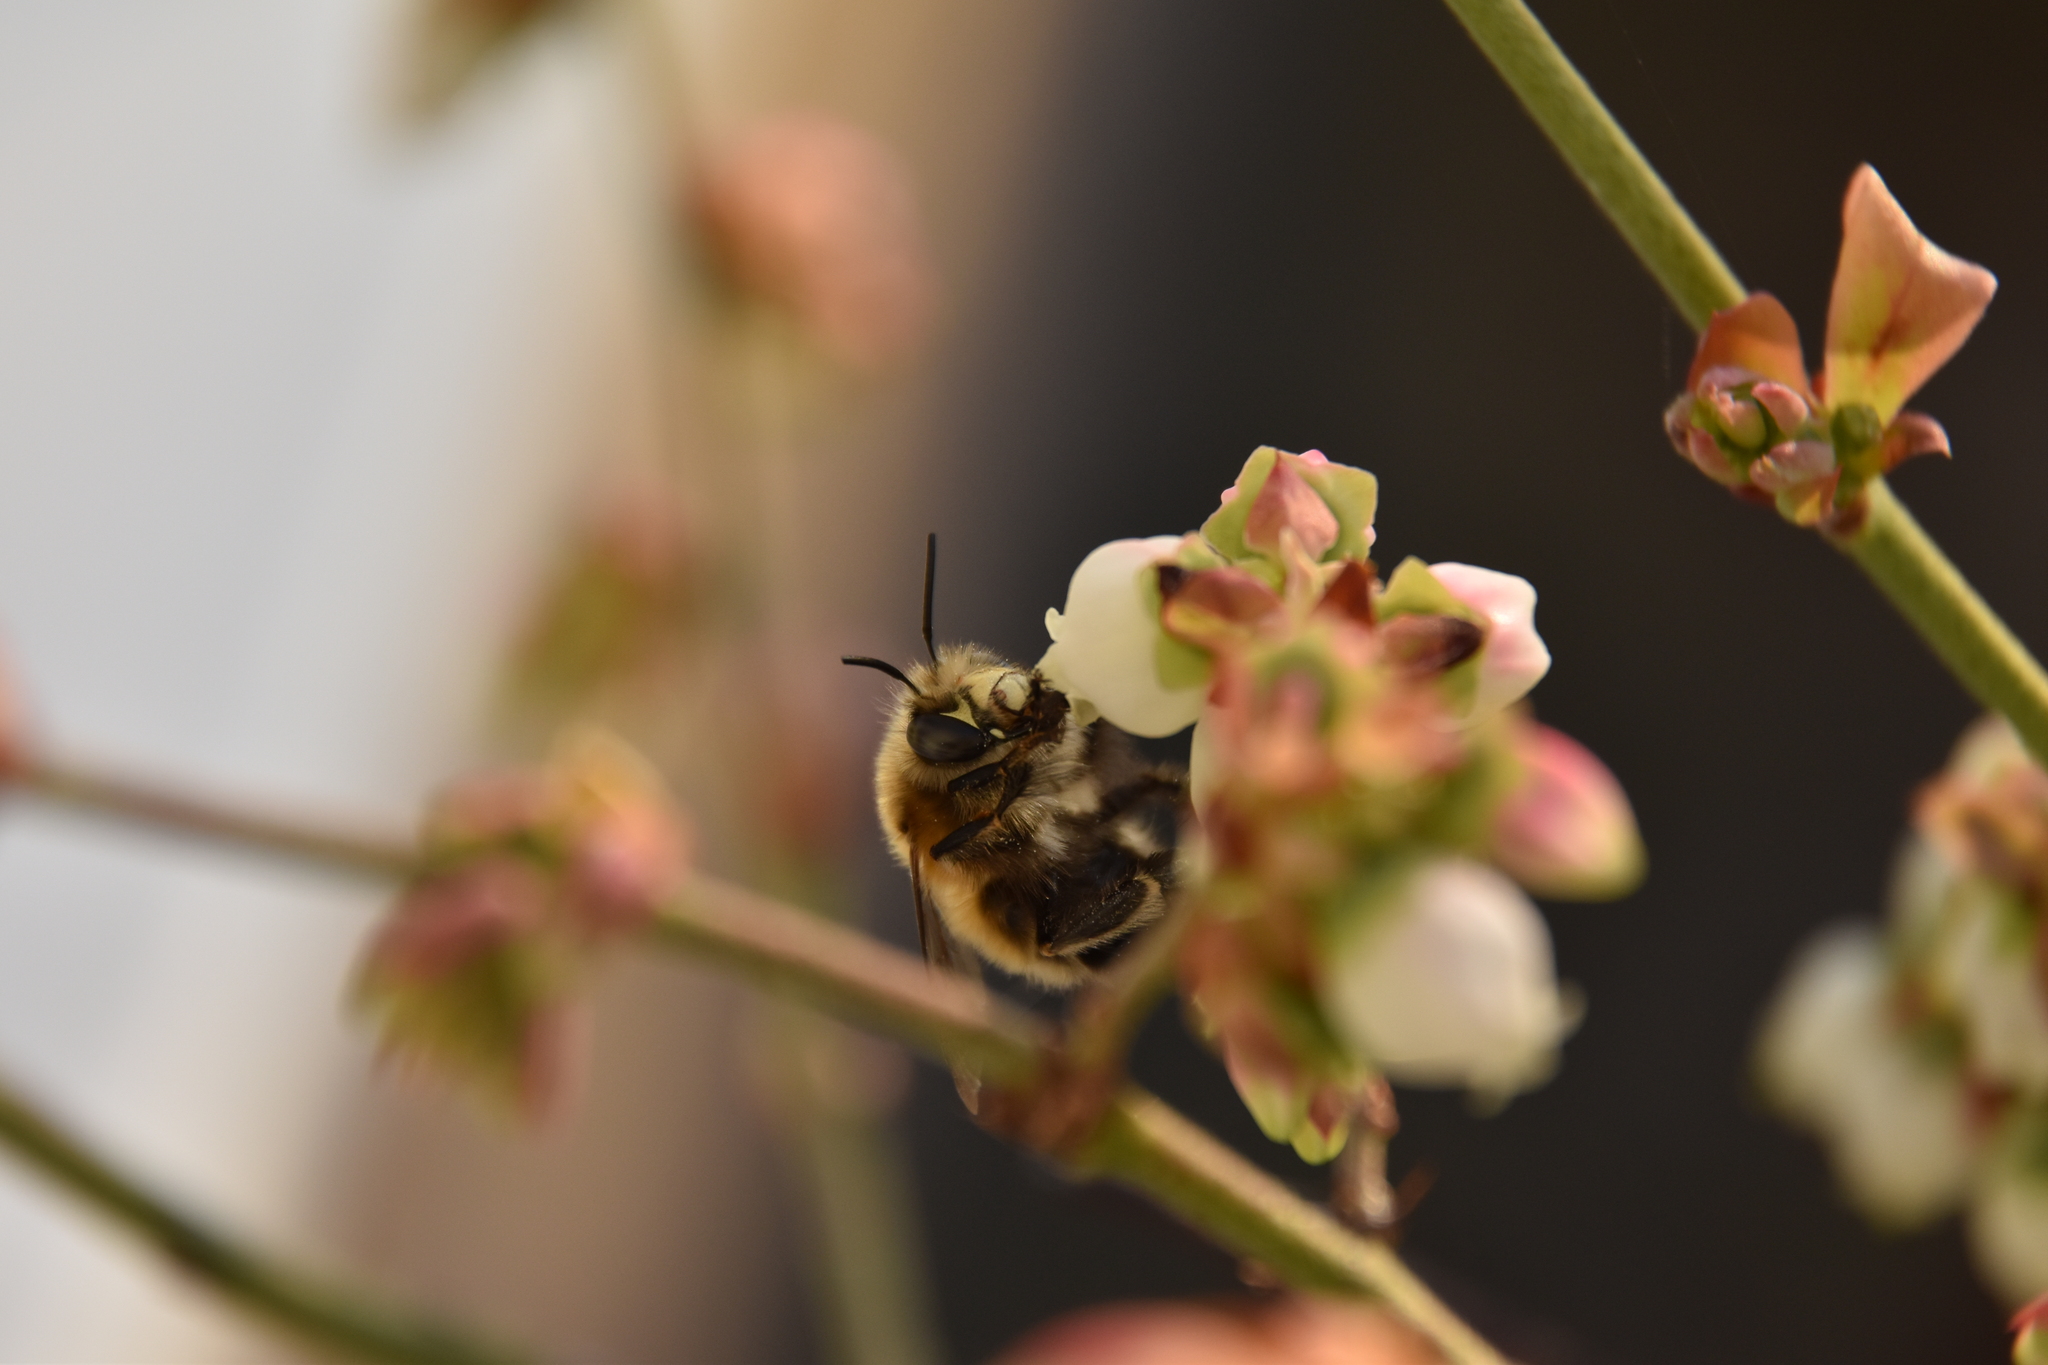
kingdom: Animalia
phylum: Arthropoda
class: Insecta
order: Hymenoptera
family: Apidae
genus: Anthophora
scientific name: Anthophora plumipes
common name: Hairy-footed flower bee
